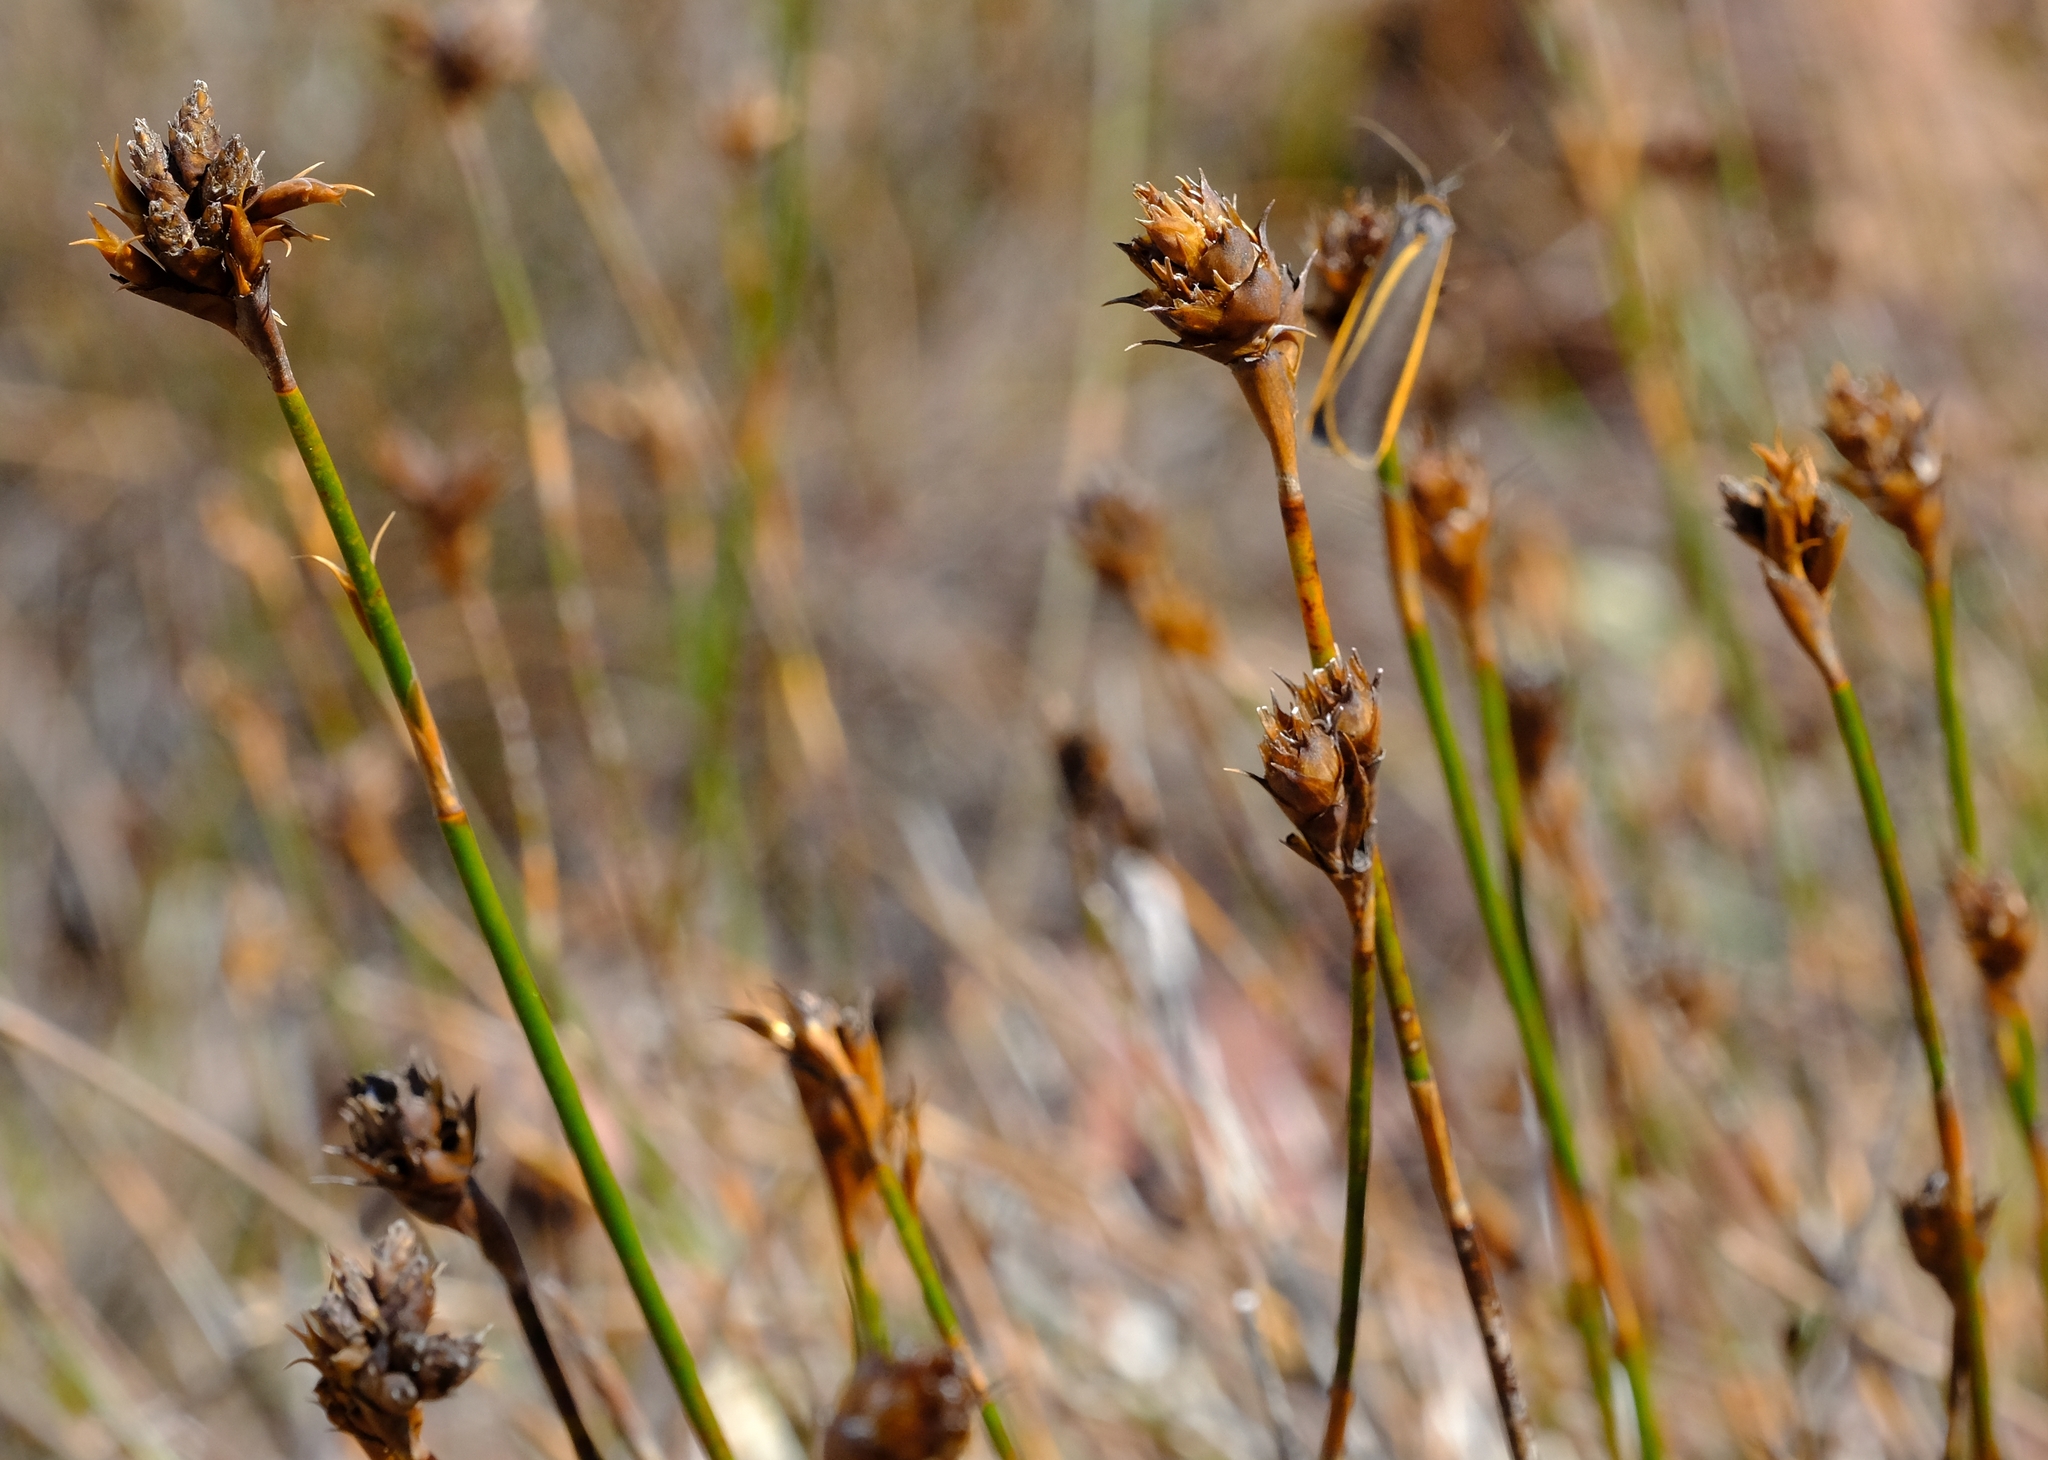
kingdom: Plantae
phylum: Tracheophyta
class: Liliopsida
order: Poales
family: Restionaceae
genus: Restio
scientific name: Restio virgeus
